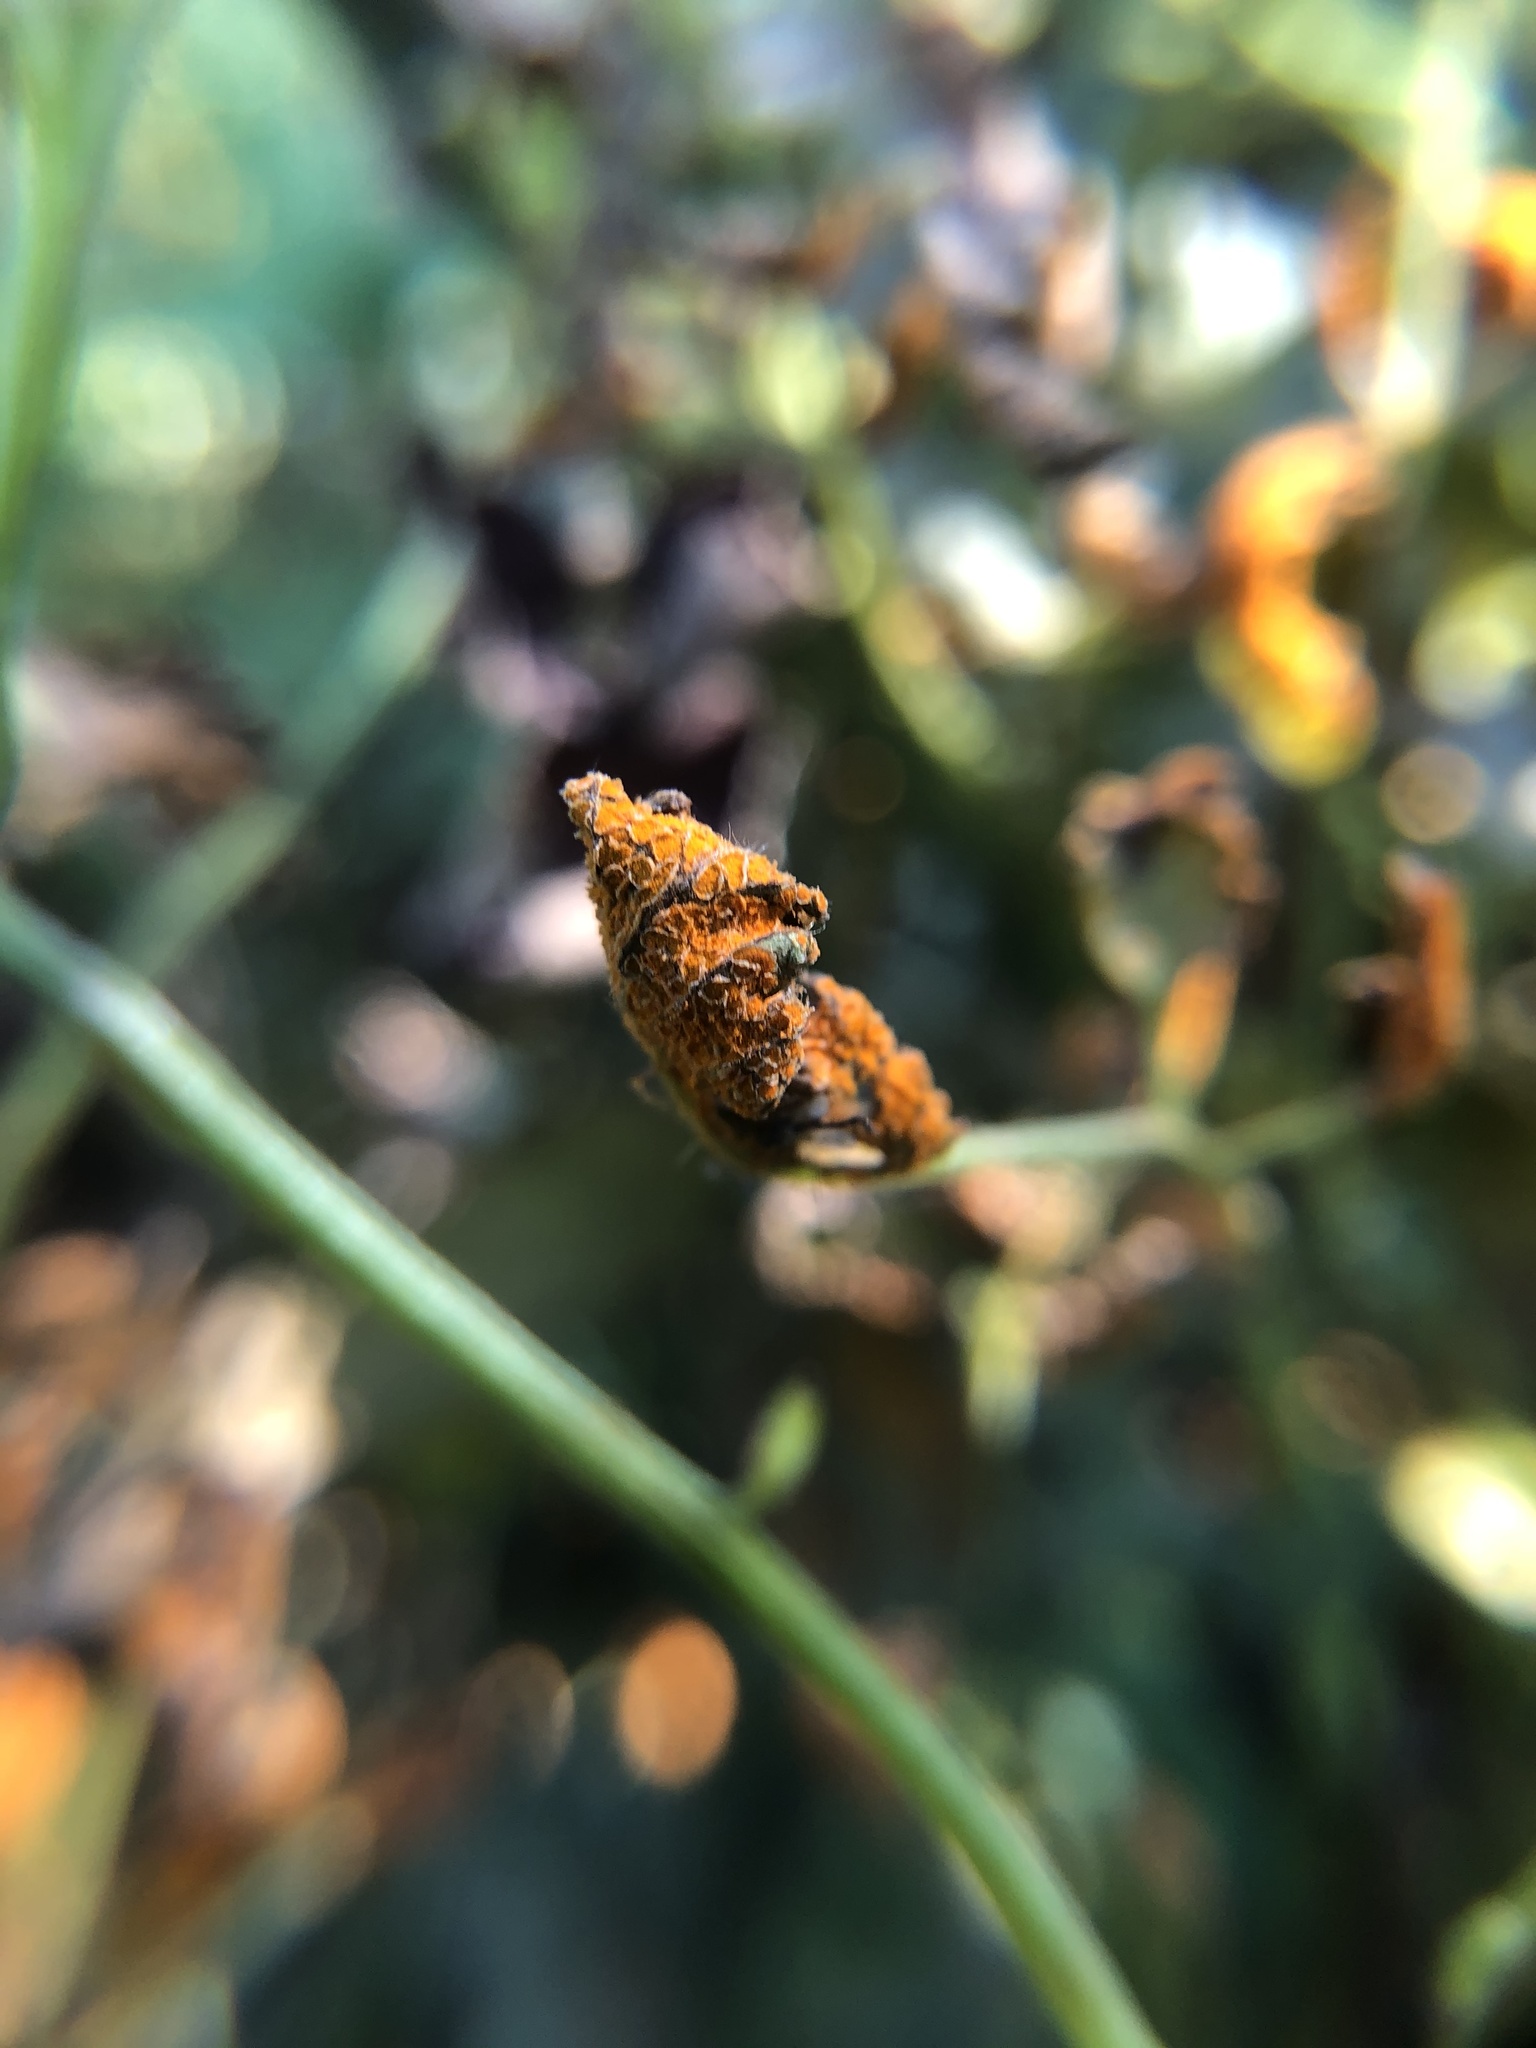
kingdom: Fungi
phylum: Basidiomycota
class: Pucciniomycetes
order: Pucciniales
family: Phragmidiaceae
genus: Arthuriomyces
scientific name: Arthuriomyces peckianus
